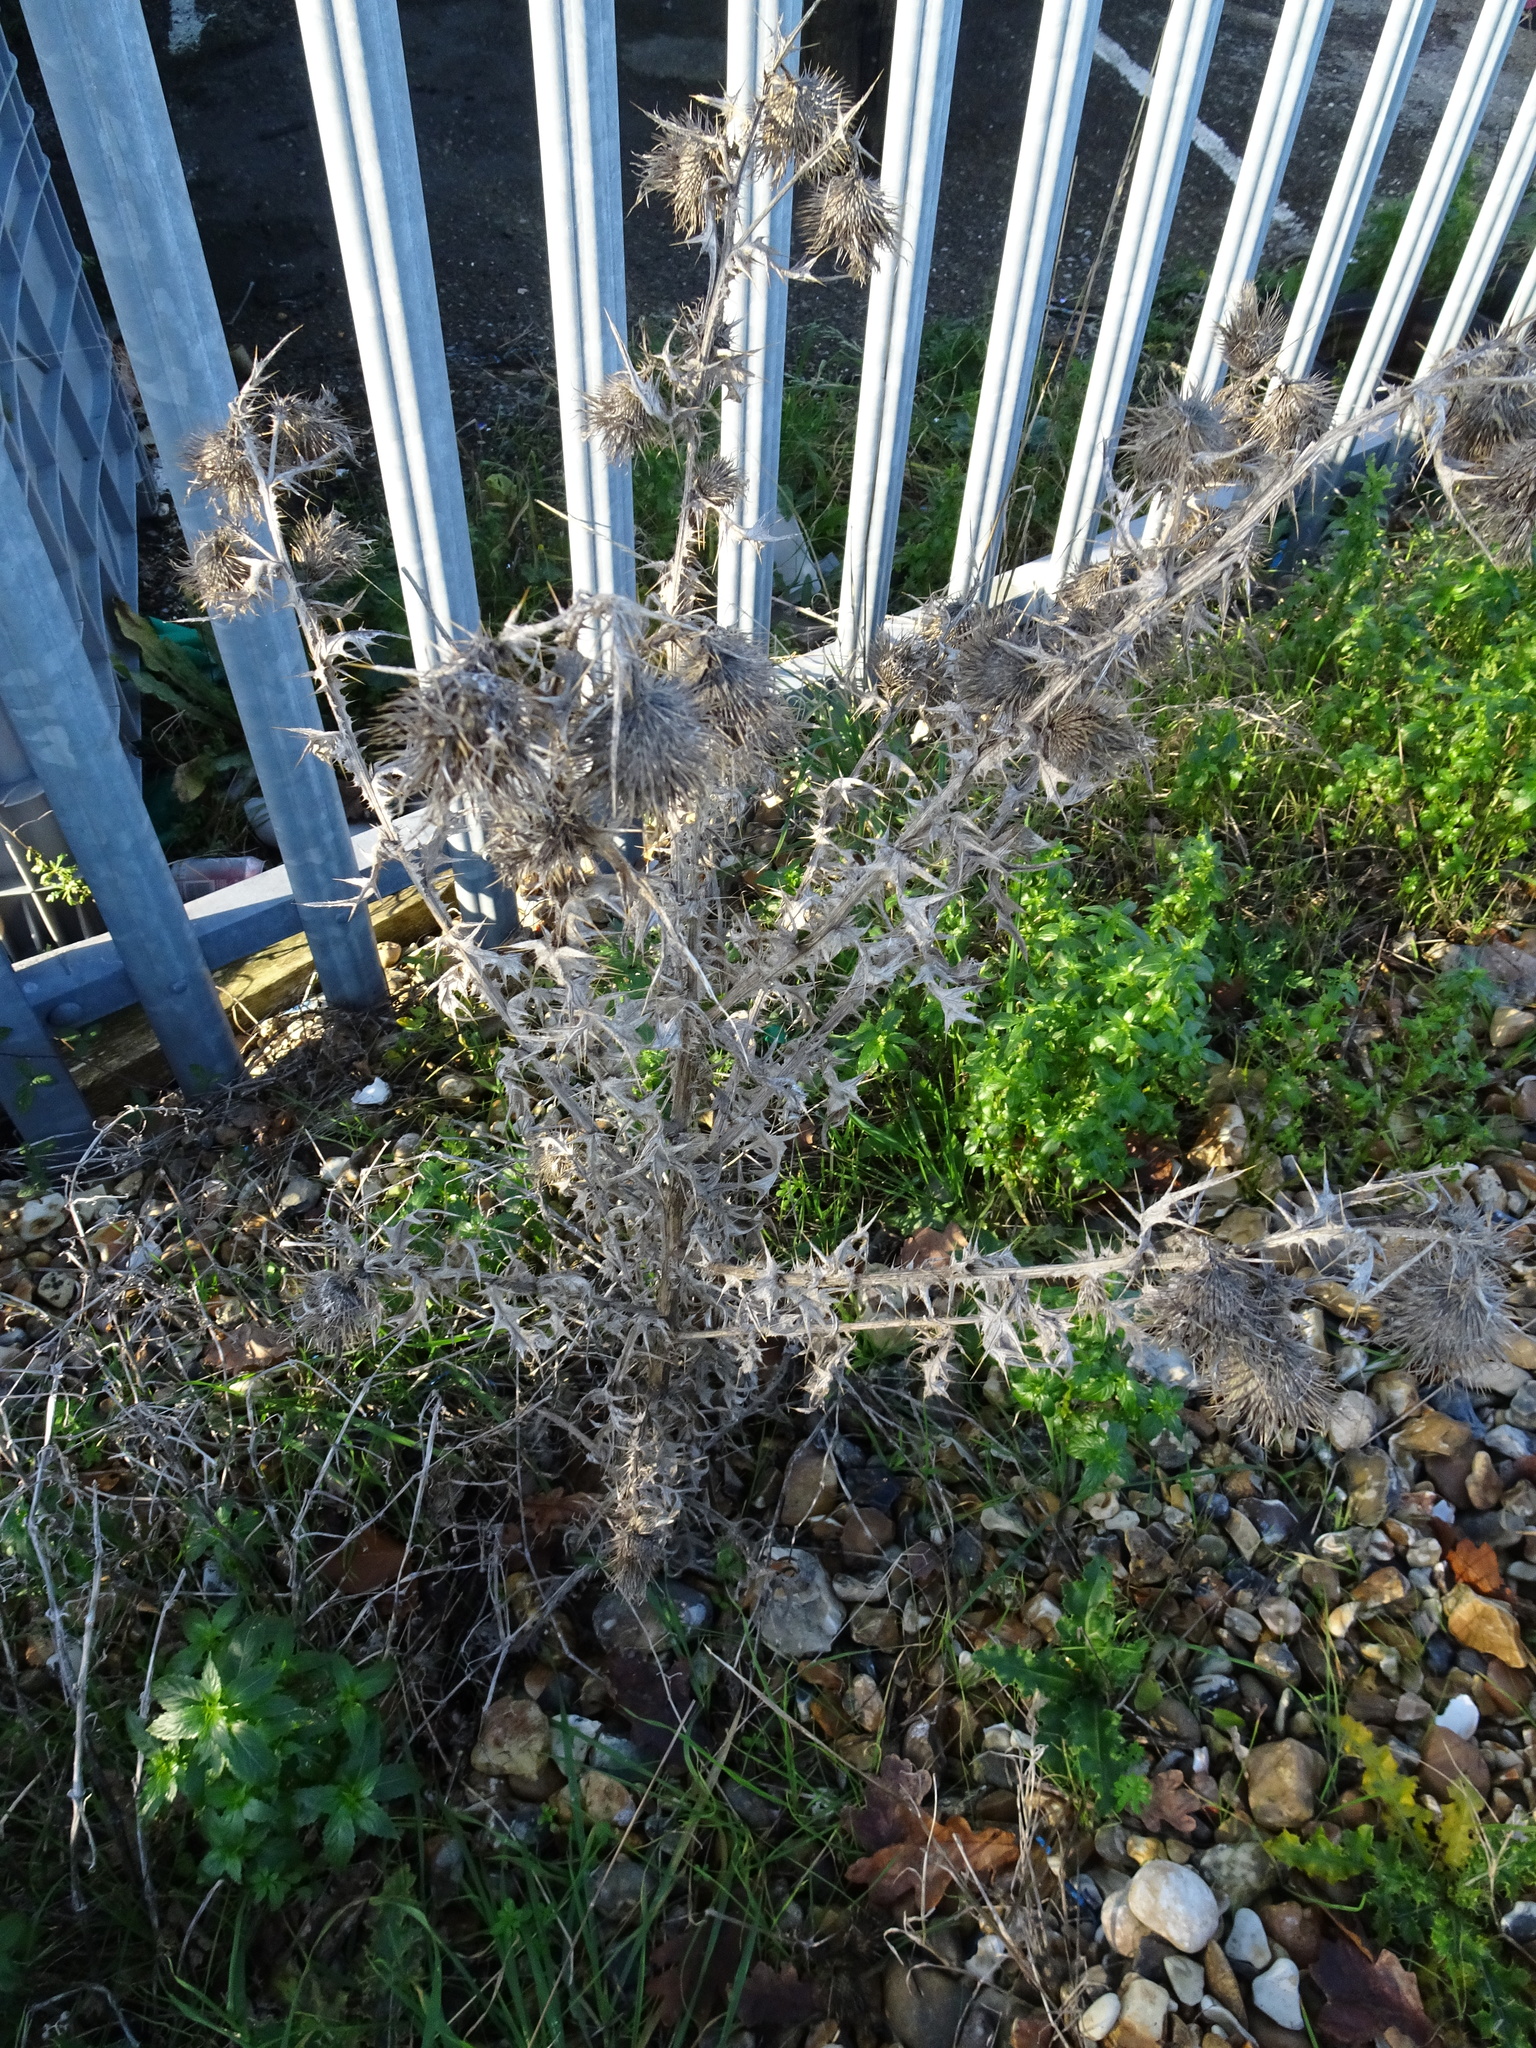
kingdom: Plantae
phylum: Tracheophyta
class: Magnoliopsida
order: Asterales
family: Asteraceae
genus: Cirsium
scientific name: Cirsium vulgare
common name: Bull thistle
